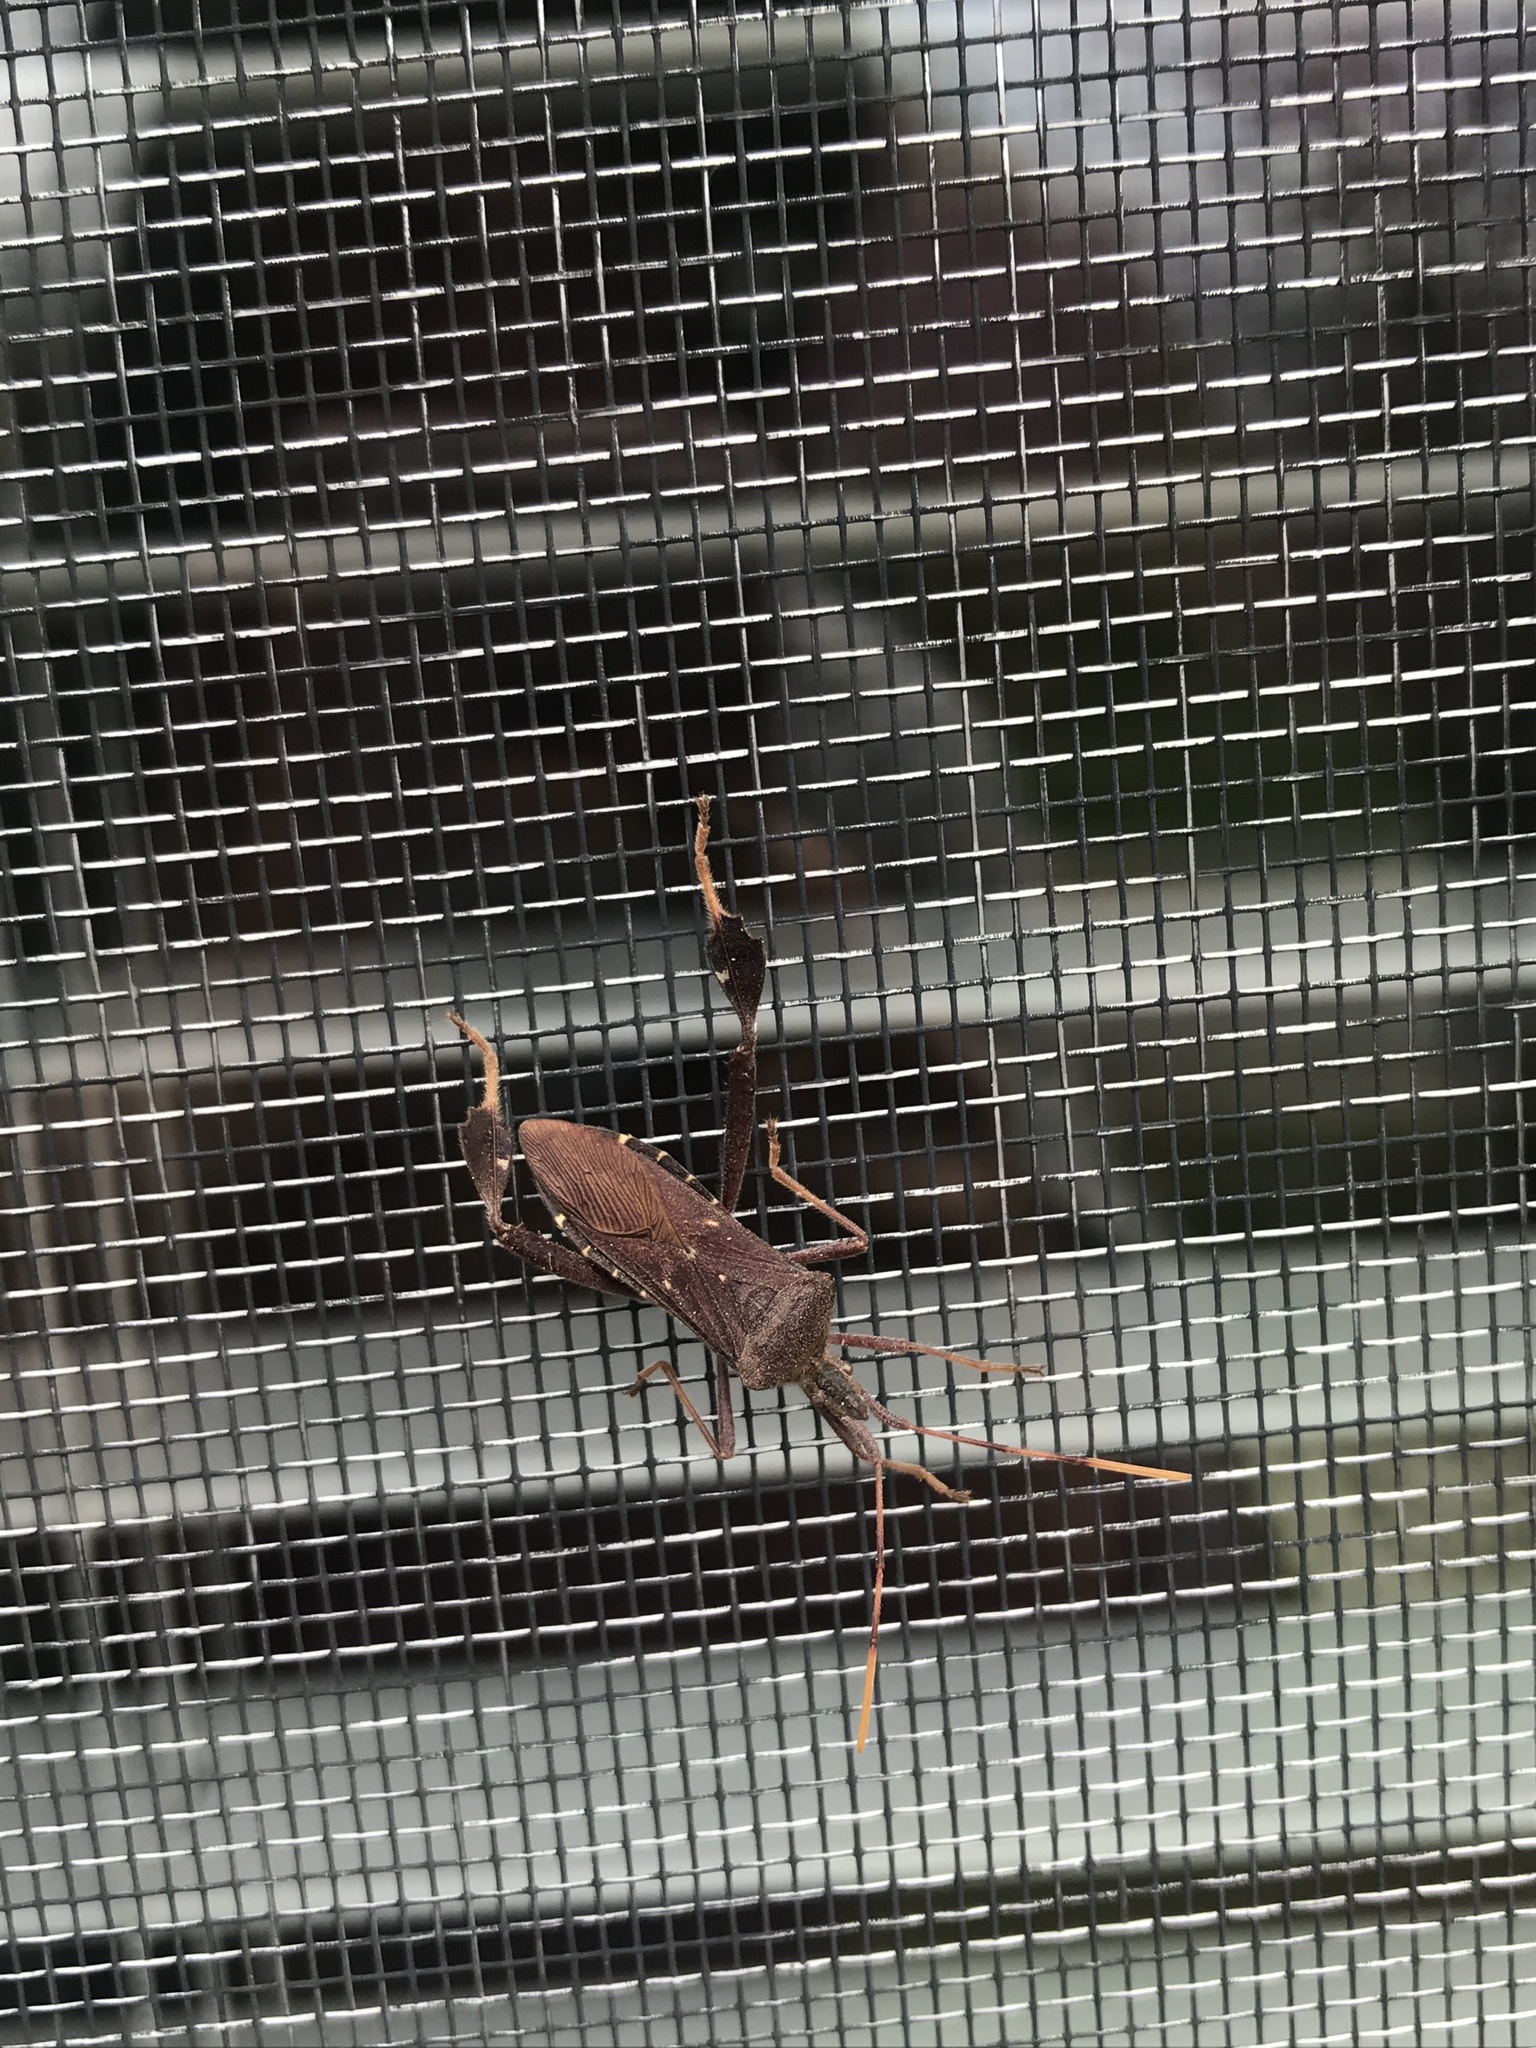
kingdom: Animalia
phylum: Arthropoda
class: Insecta
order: Hemiptera
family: Coreidae
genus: Leptoglossus
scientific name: Leptoglossus oppositus
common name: Northern leaf-footed bug
